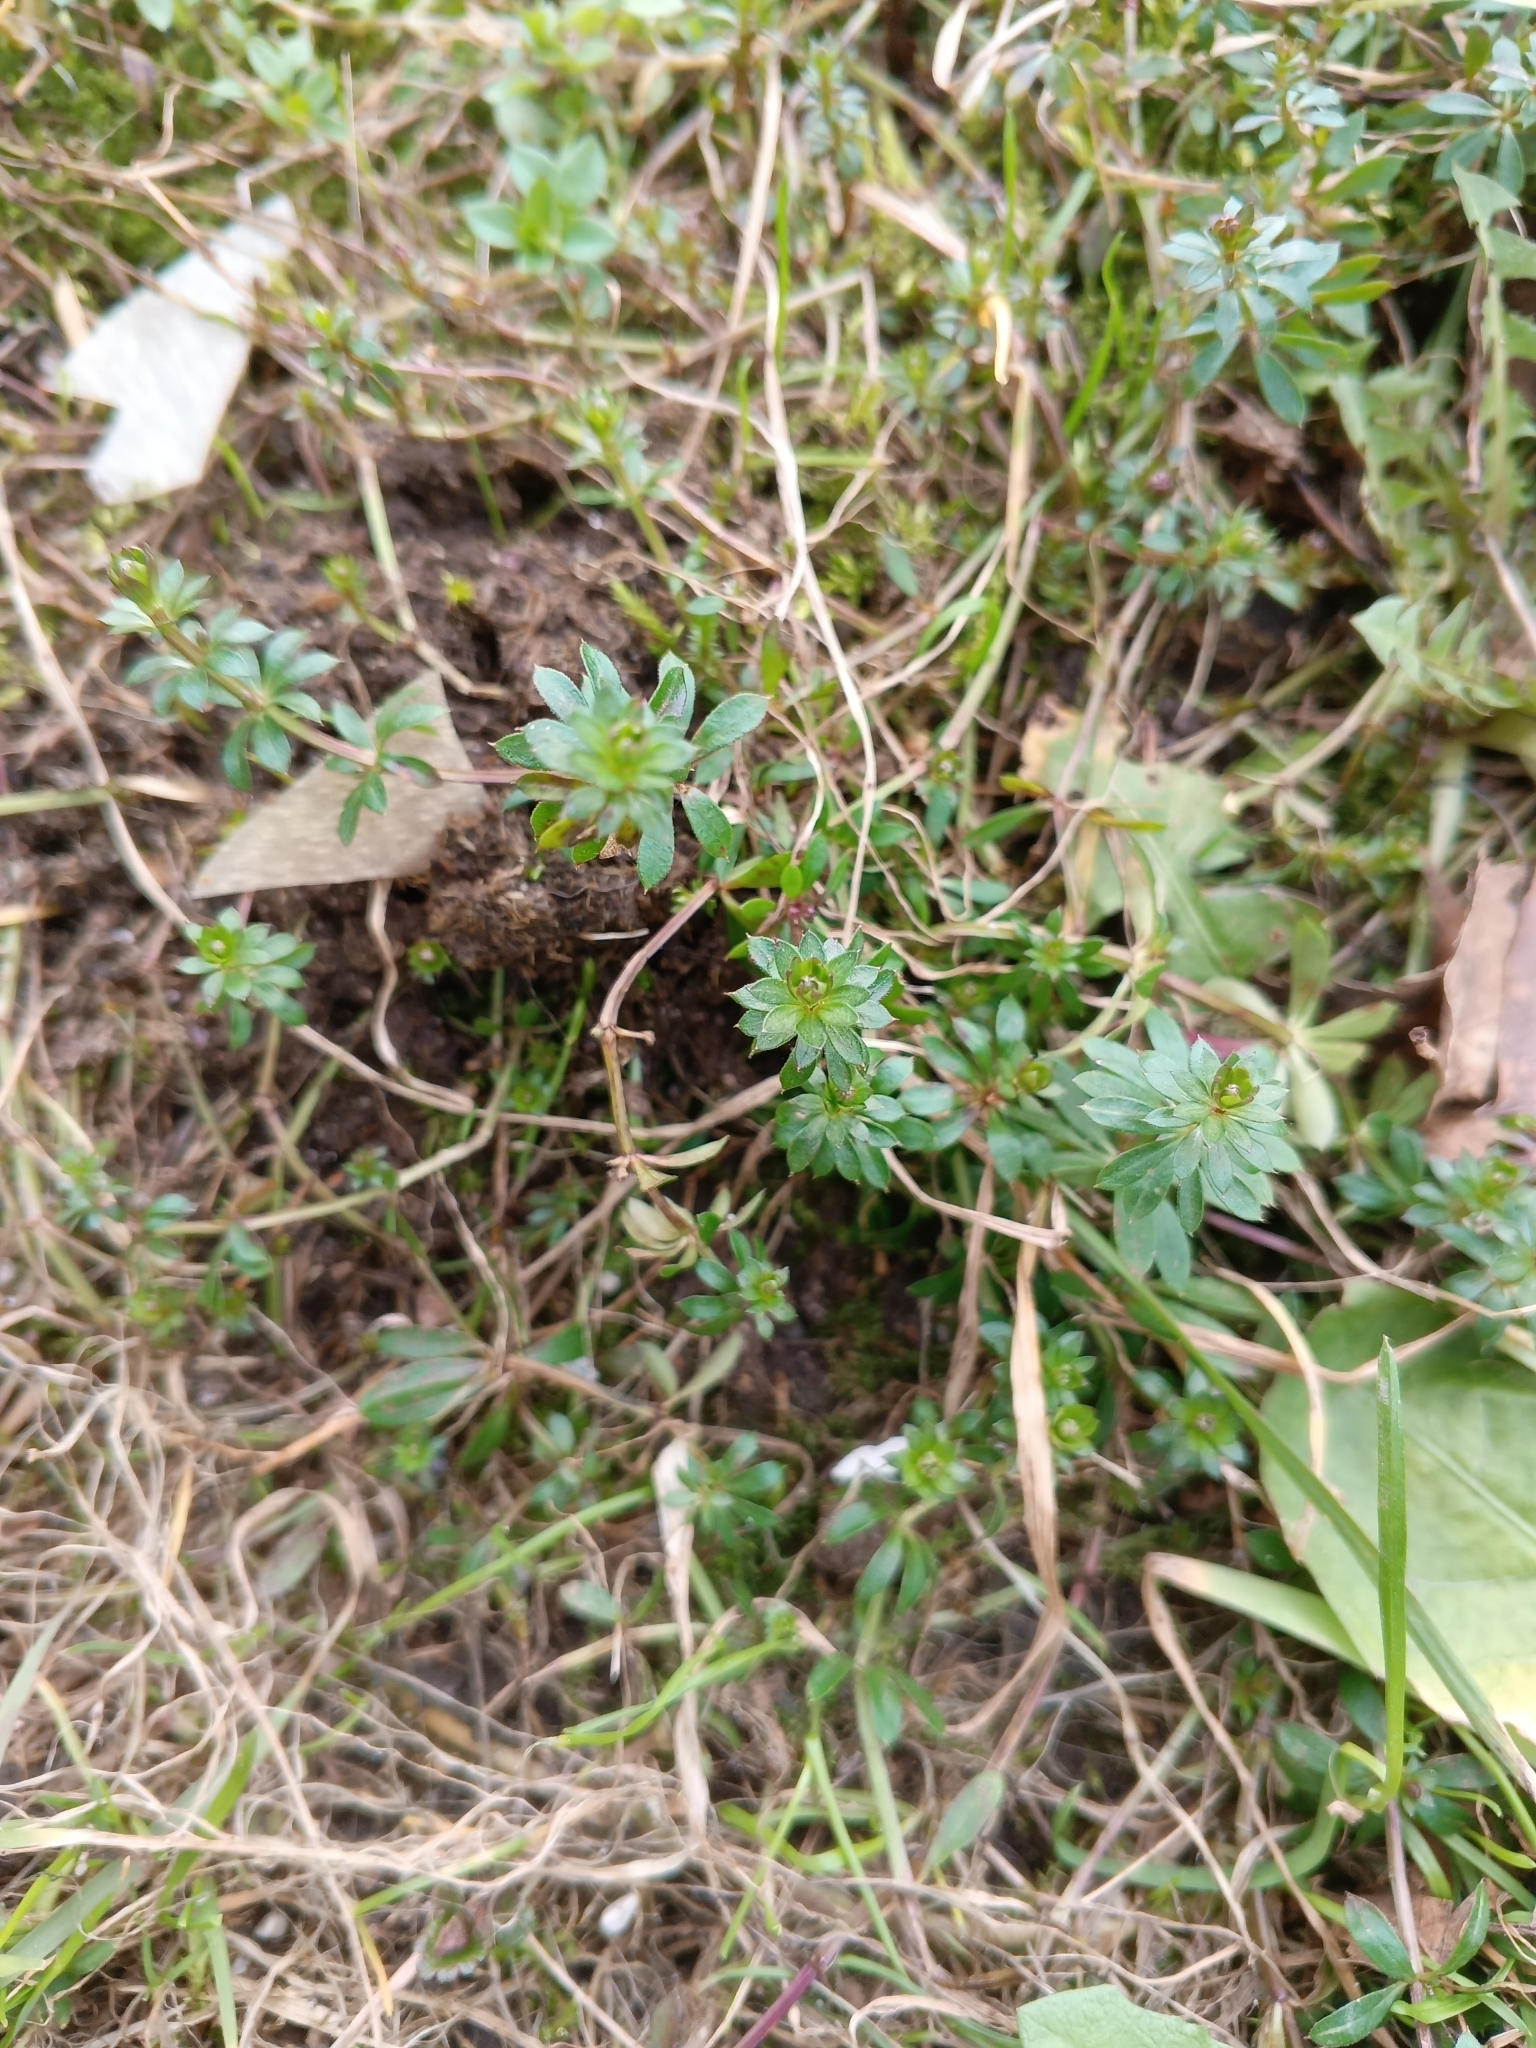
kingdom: Plantae
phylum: Tracheophyta
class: Magnoliopsida
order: Gentianales
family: Rubiaceae
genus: Galium
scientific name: Galium mollugo
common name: Hedge bedstraw
